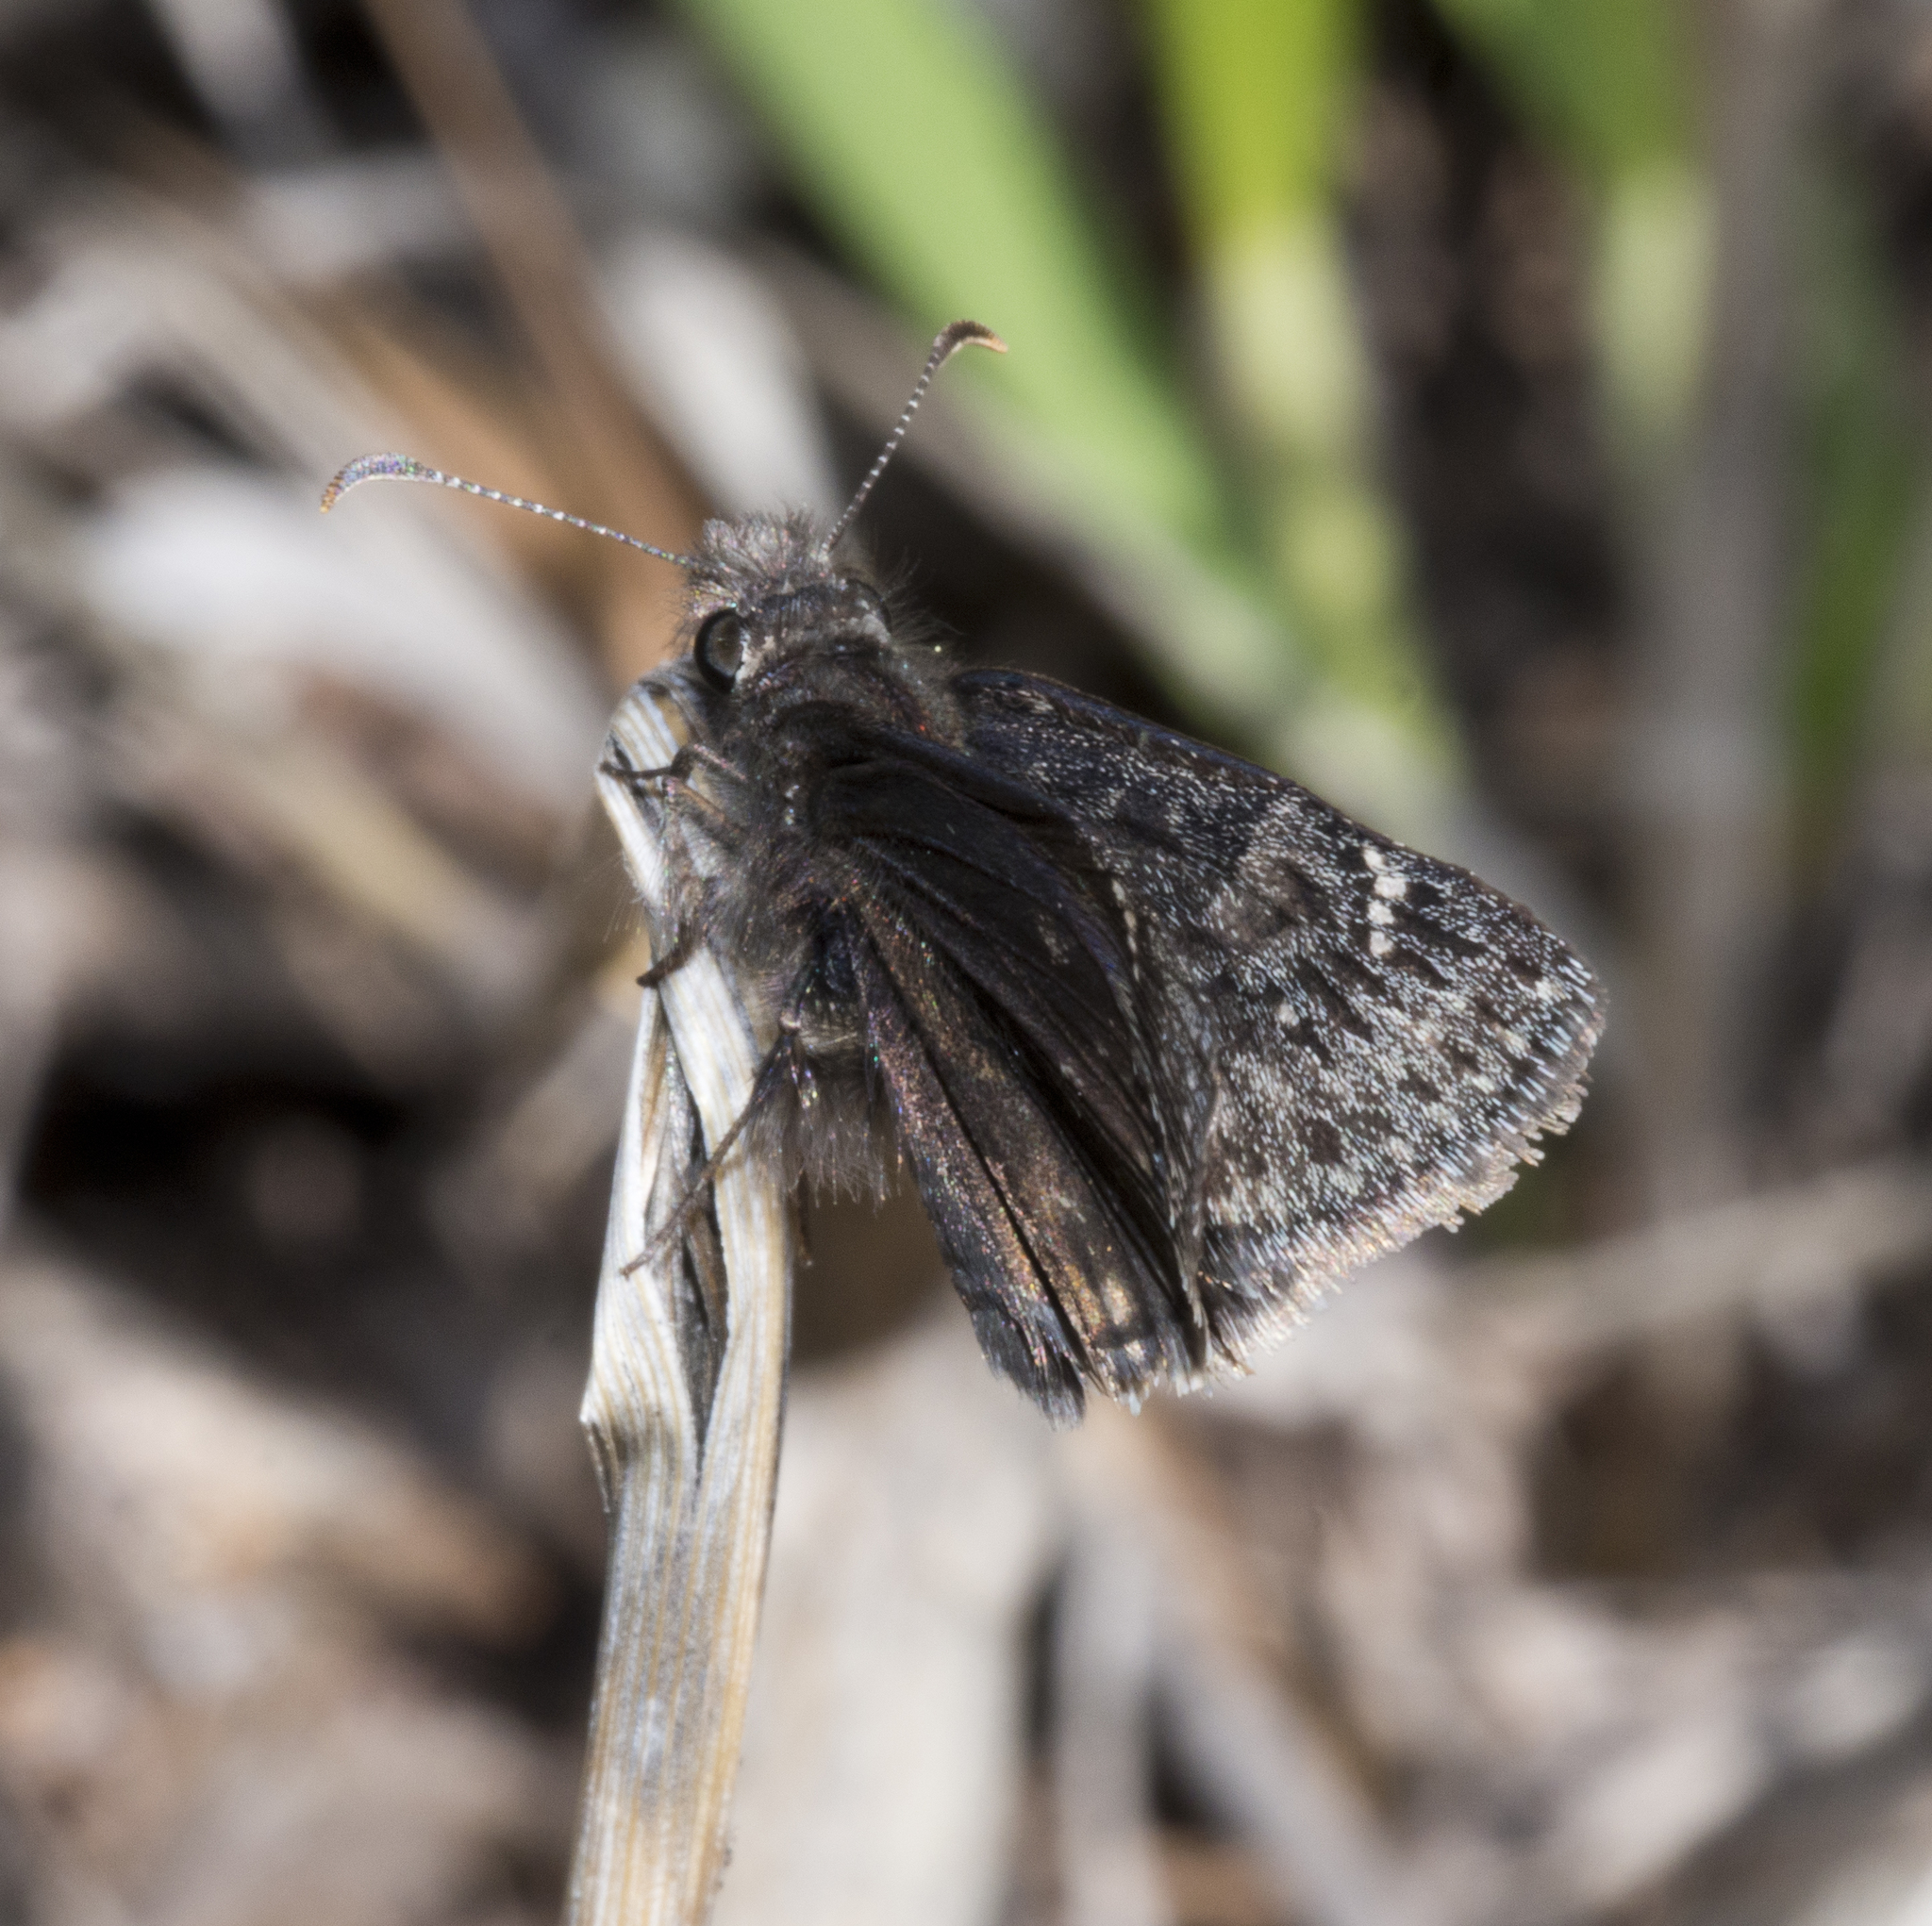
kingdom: Animalia
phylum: Arthropoda
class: Insecta
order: Lepidoptera
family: Hesperiidae
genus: Erynnis
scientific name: Erynnis afranius
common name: Afranius duskywing
